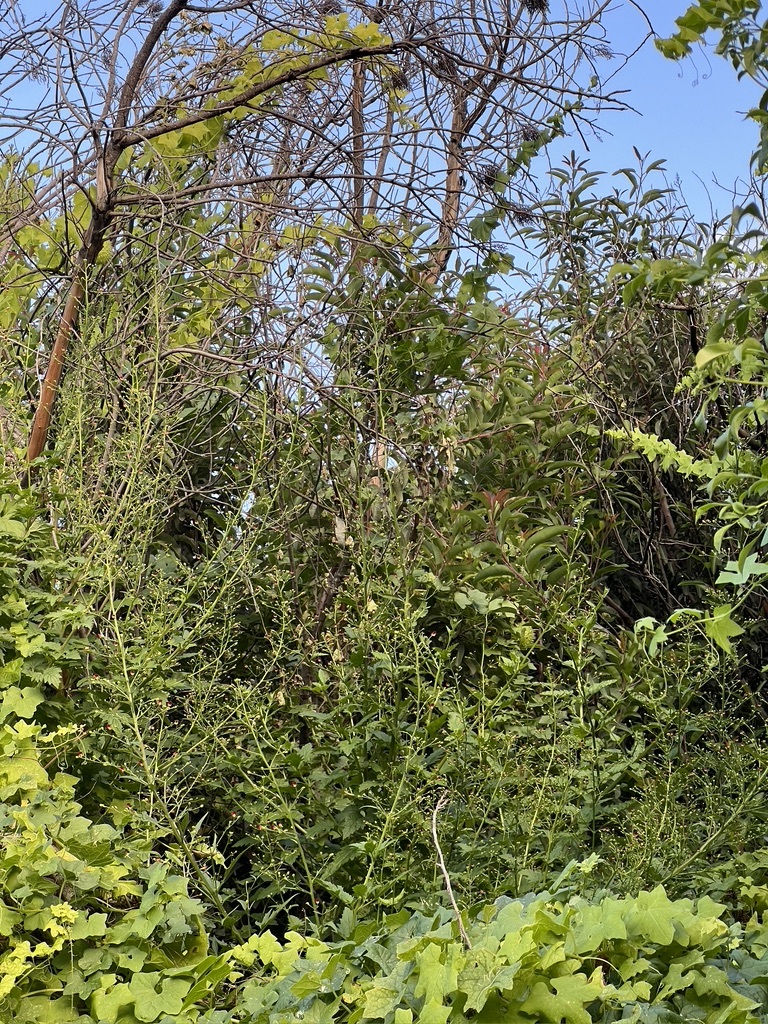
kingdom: Plantae
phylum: Tracheophyta
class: Magnoliopsida
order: Lamiales
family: Scrophulariaceae
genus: Scrophularia
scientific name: Scrophularia californica
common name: California figwort
